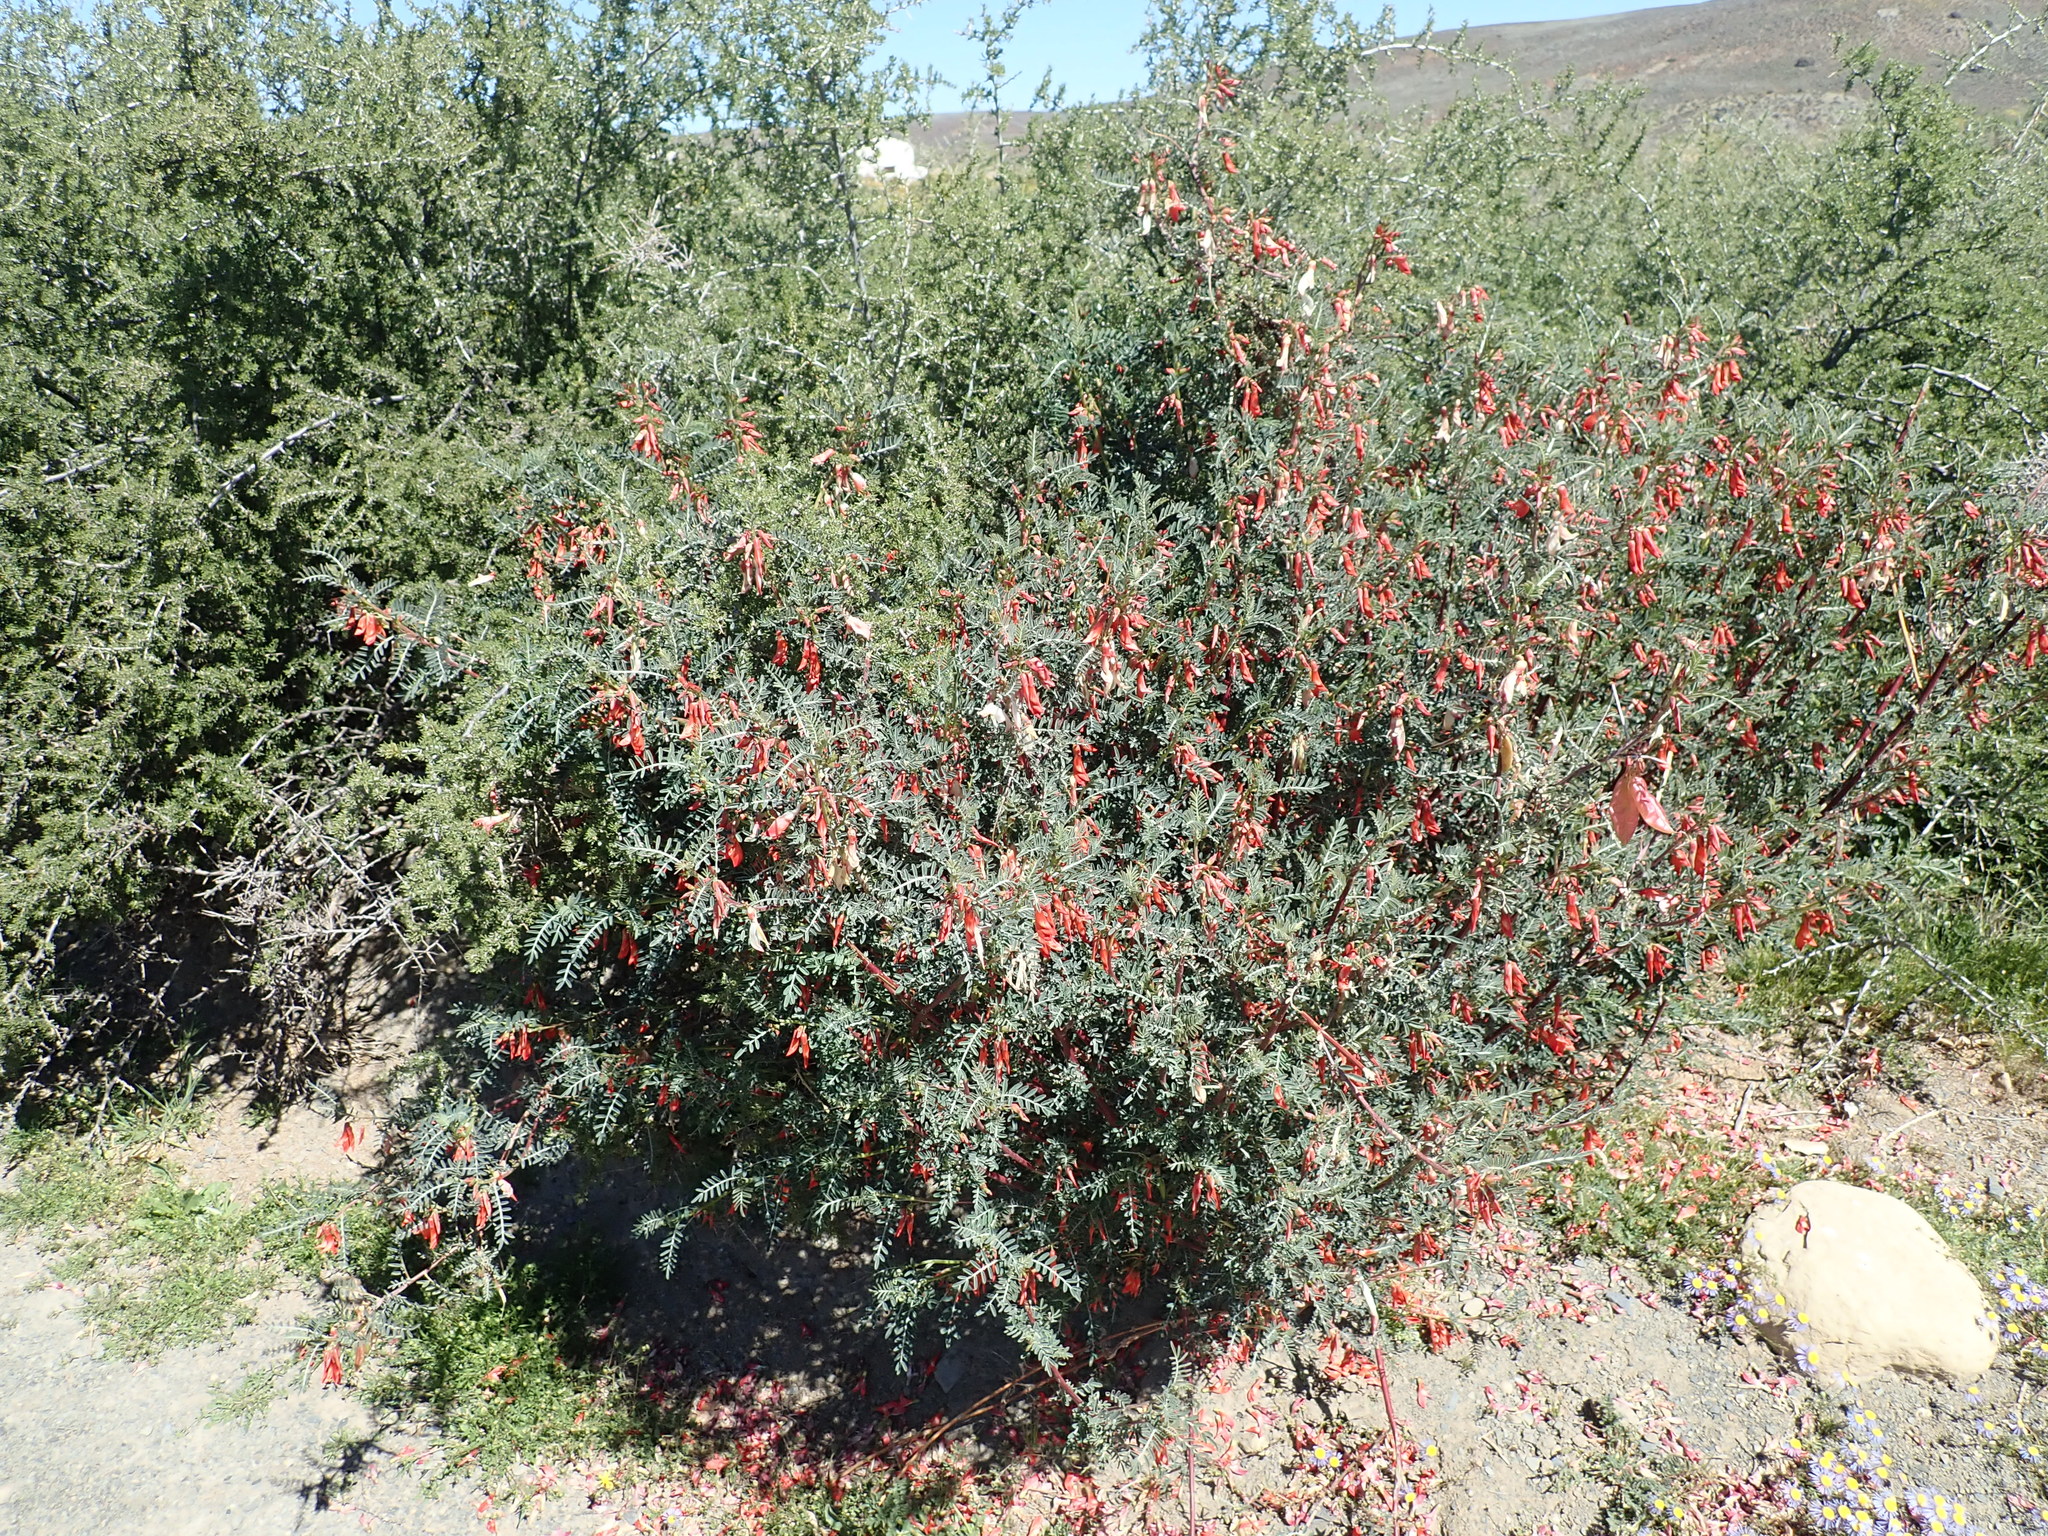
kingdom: Plantae
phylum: Tracheophyta
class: Magnoliopsida
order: Fabales
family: Fabaceae
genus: Lessertia
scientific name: Lessertia frutescens
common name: Balloon-pea
